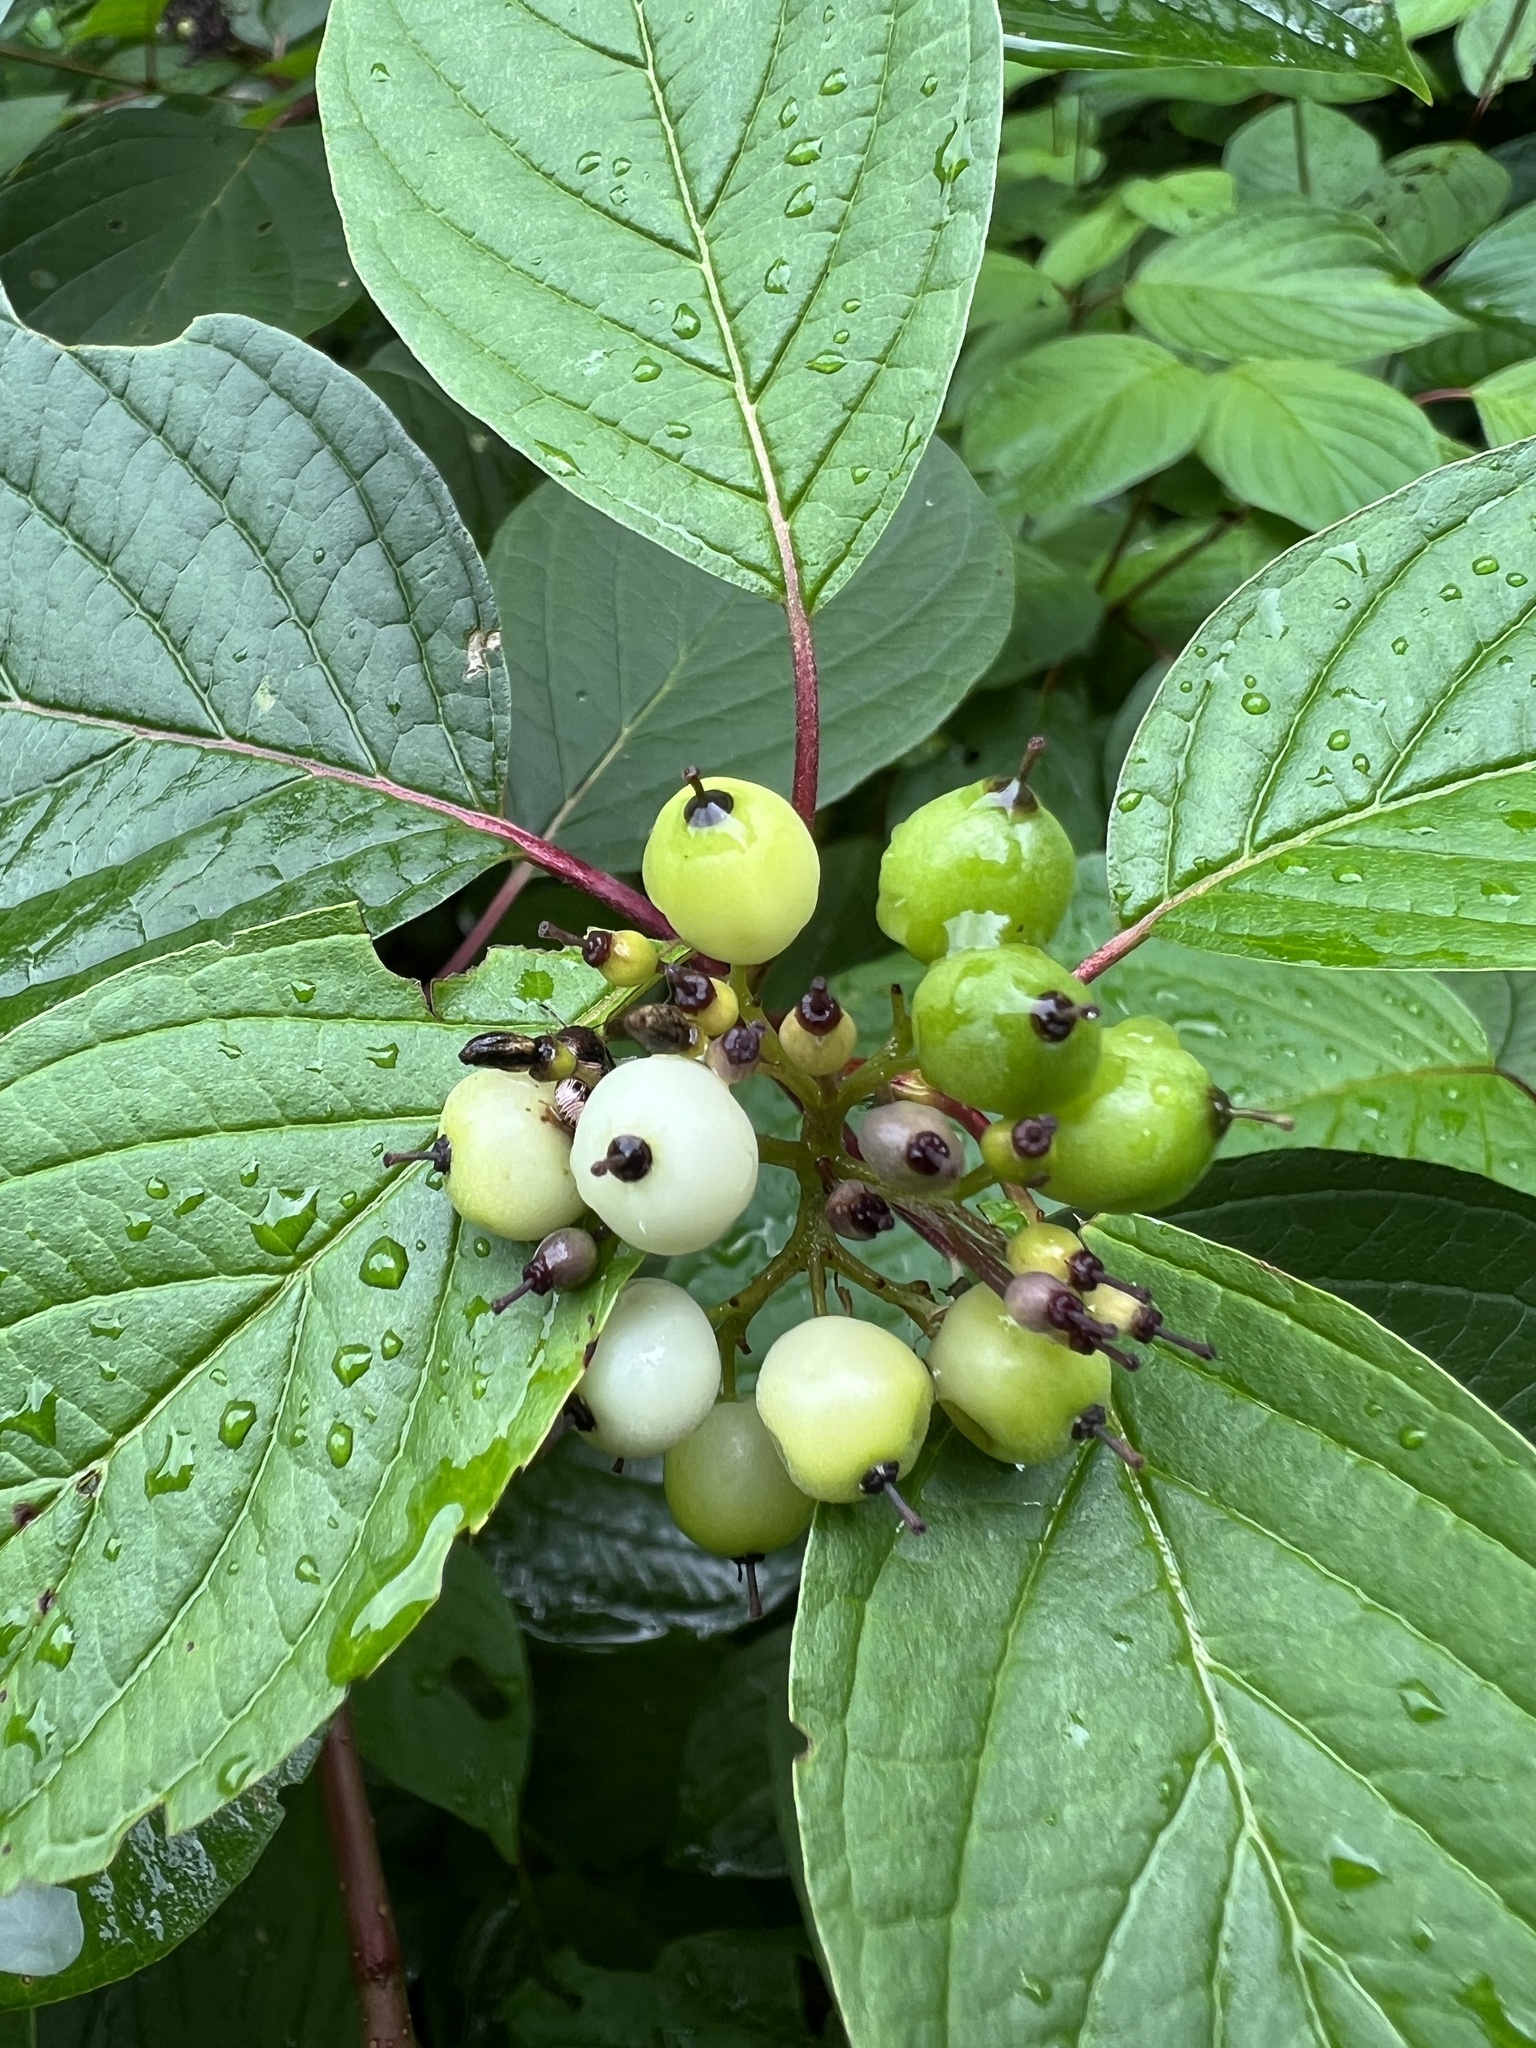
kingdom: Plantae
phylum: Tracheophyta
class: Magnoliopsida
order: Cornales
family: Cornaceae
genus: Cornus
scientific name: Cornus sericea
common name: Red-osier dogwood
